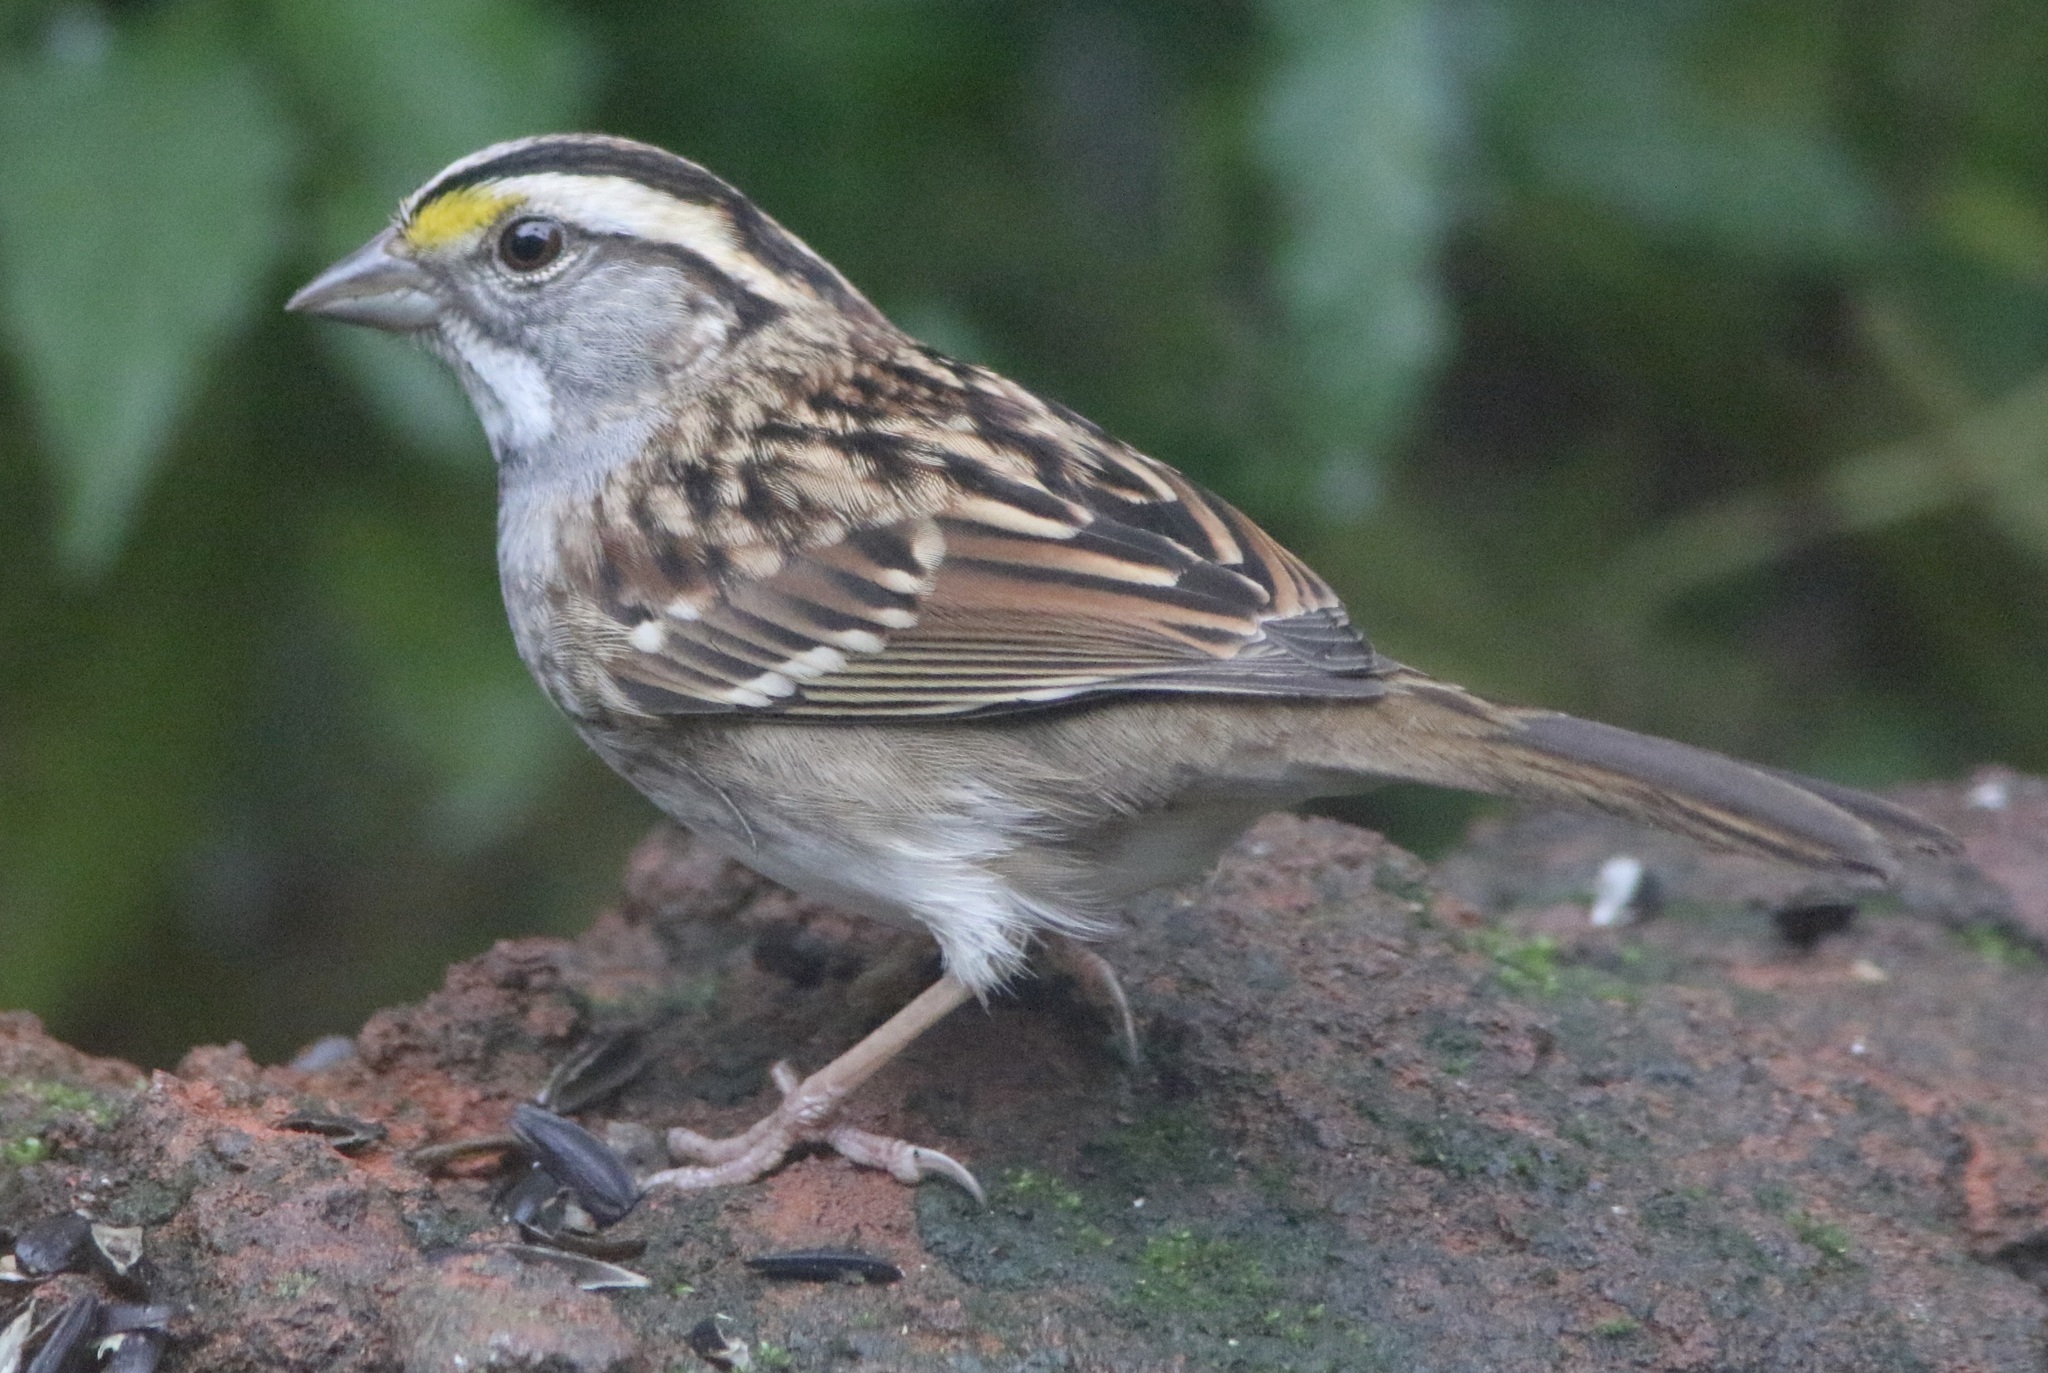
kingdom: Animalia
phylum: Chordata
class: Aves
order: Passeriformes
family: Passerellidae
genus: Zonotrichia
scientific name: Zonotrichia albicollis
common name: White-throated sparrow
